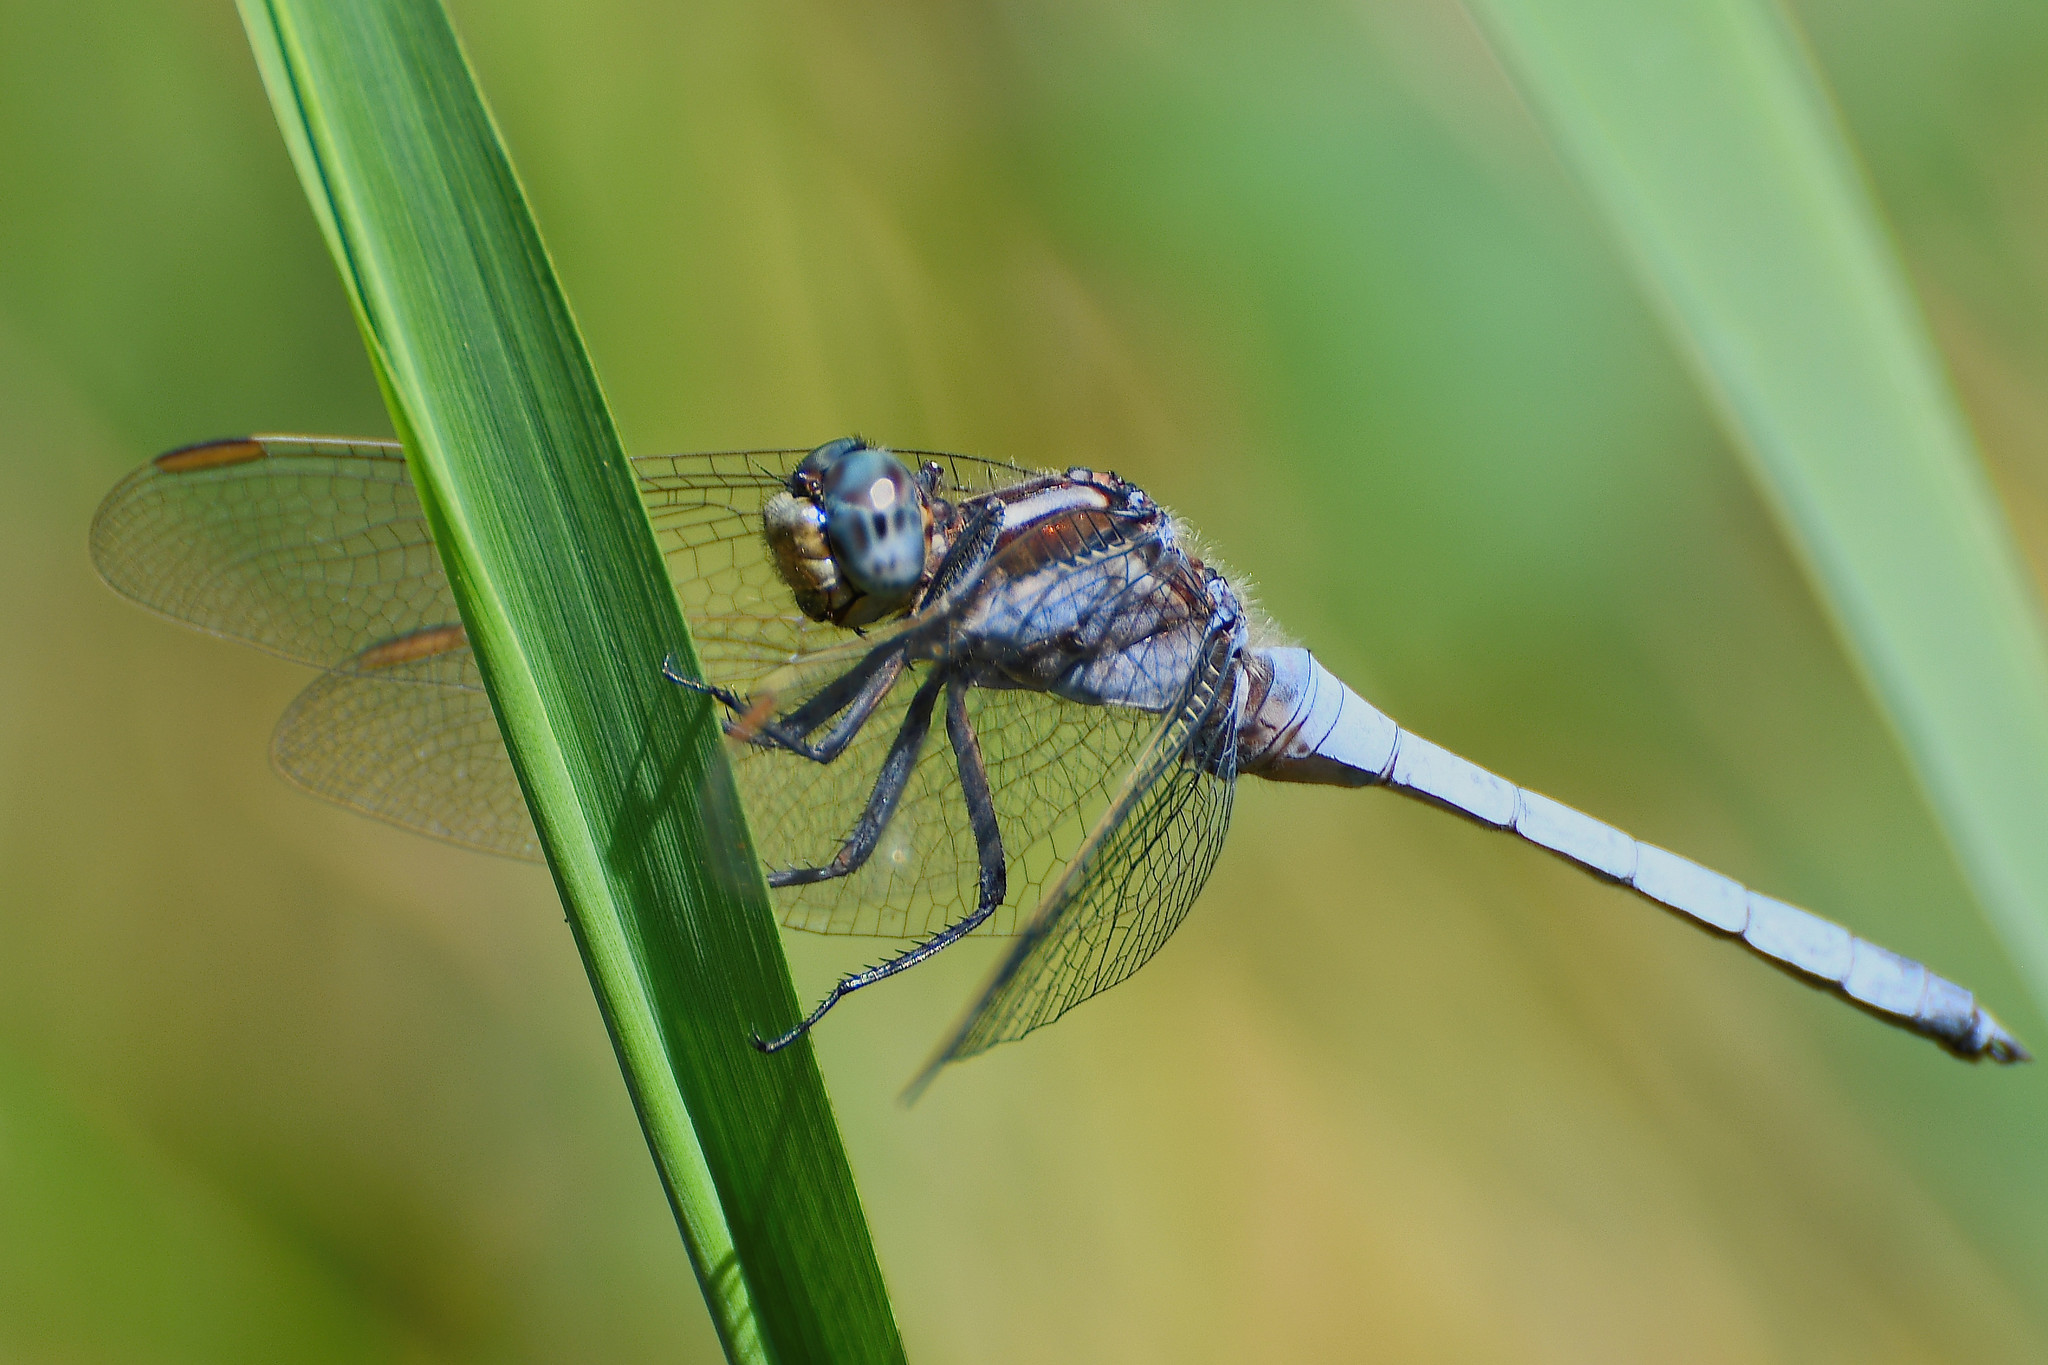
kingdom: Animalia
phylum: Arthropoda
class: Insecta
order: Odonata
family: Libellulidae
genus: Orthetrum
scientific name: Orthetrum coerulescens
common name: Keeled skimmer
